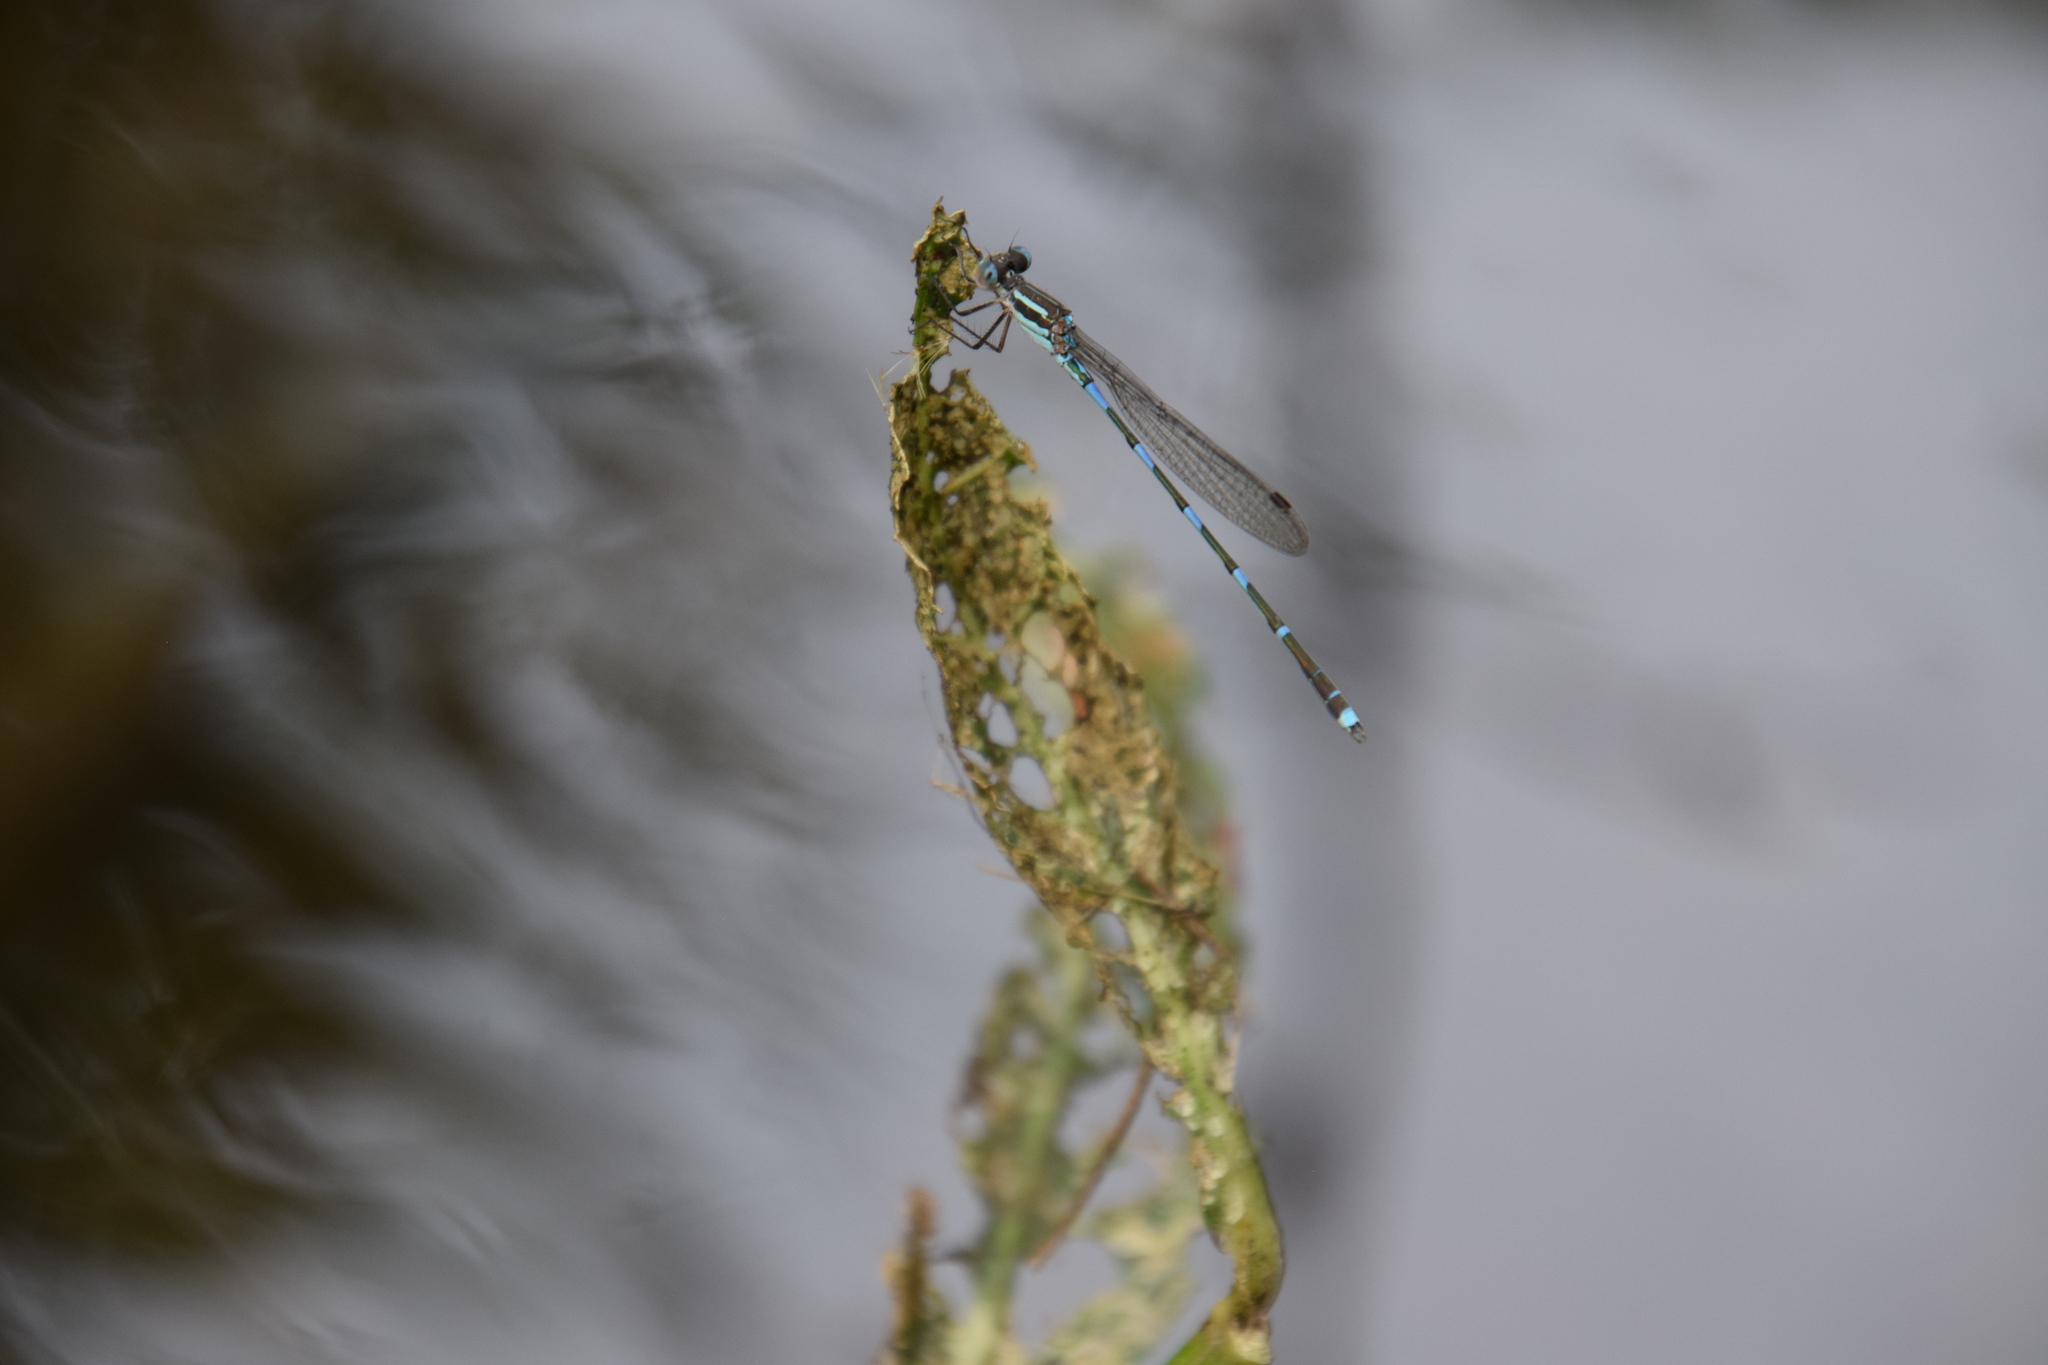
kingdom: Animalia
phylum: Arthropoda
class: Insecta
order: Odonata
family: Lestidae
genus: Austrolestes
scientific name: Austrolestes leda
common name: Wandering ringtail
